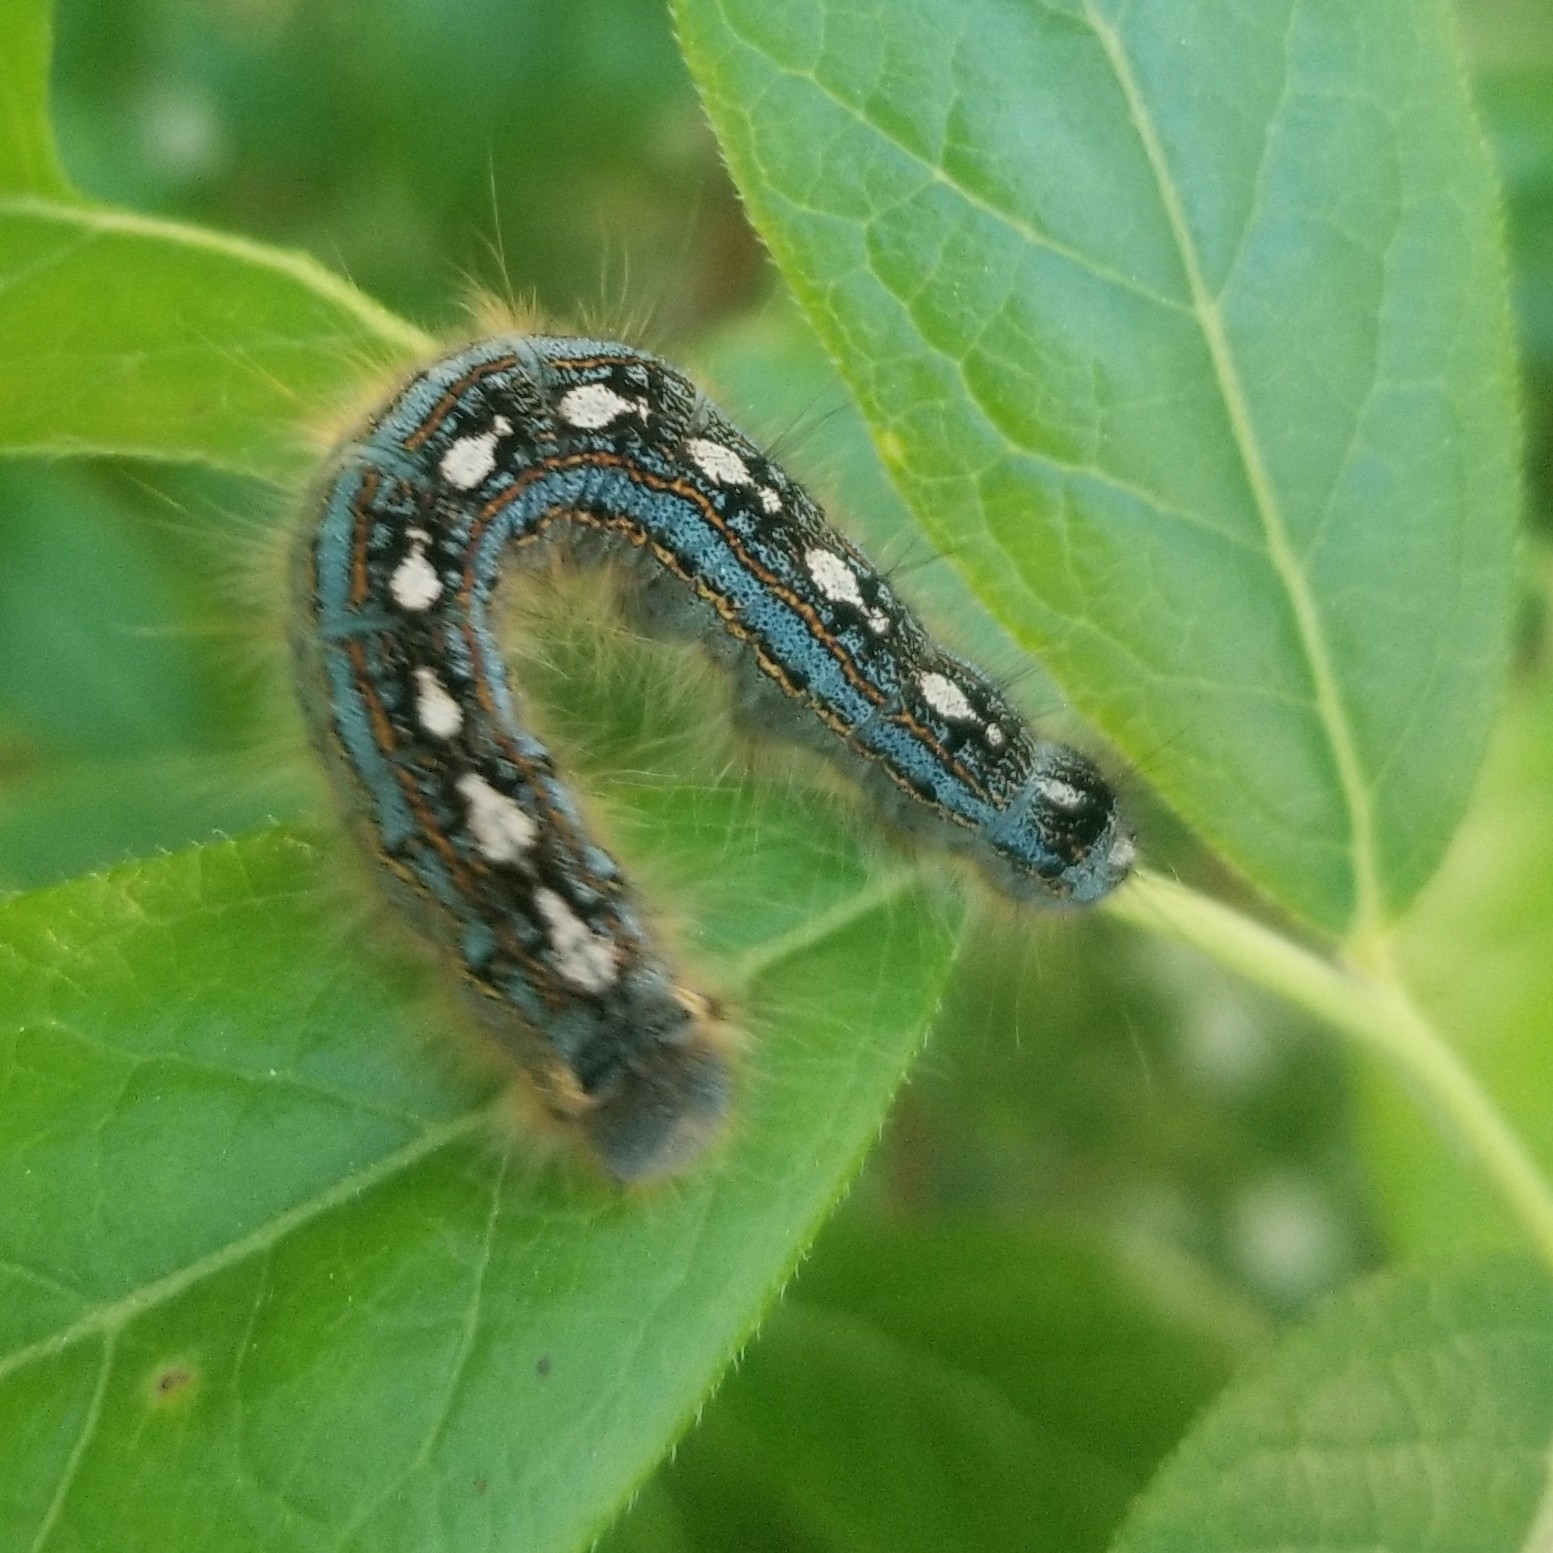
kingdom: Animalia
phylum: Arthropoda
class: Insecta
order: Lepidoptera
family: Lasiocampidae
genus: Malacosoma
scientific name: Malacosoma disstria
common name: Forest tent caterpillar
